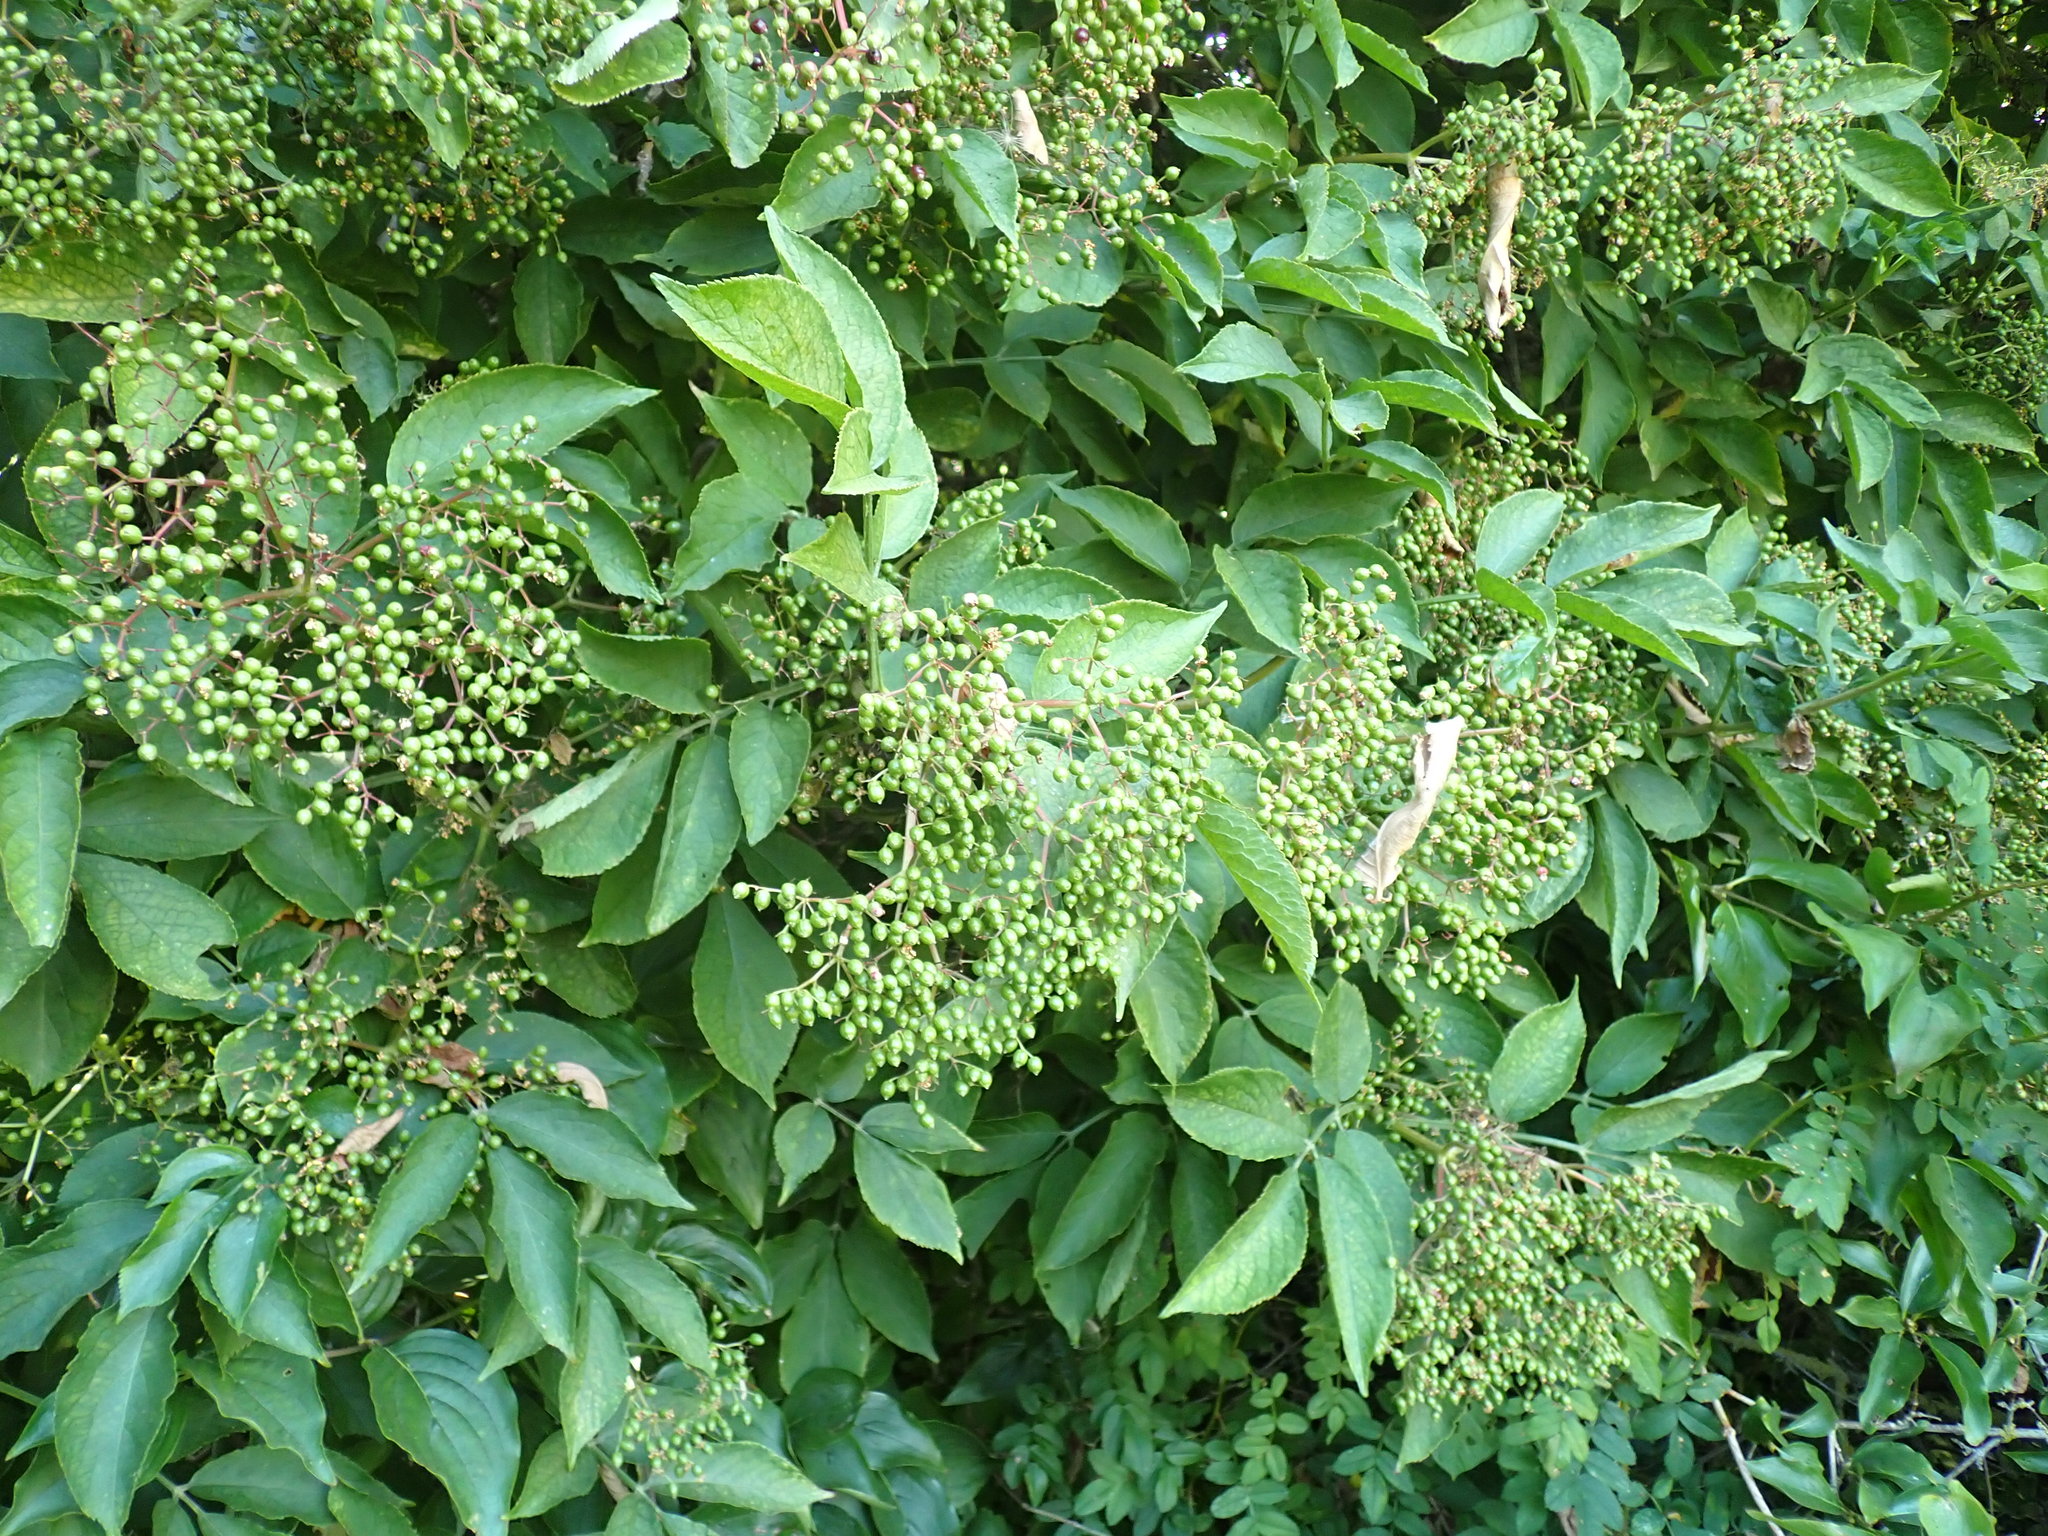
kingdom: Plantae
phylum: Tracheophyta
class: Magnoliopsida
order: Dipsacales
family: Viburnaceae
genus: Sambucus
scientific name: Sambucus nigra
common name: Elder
